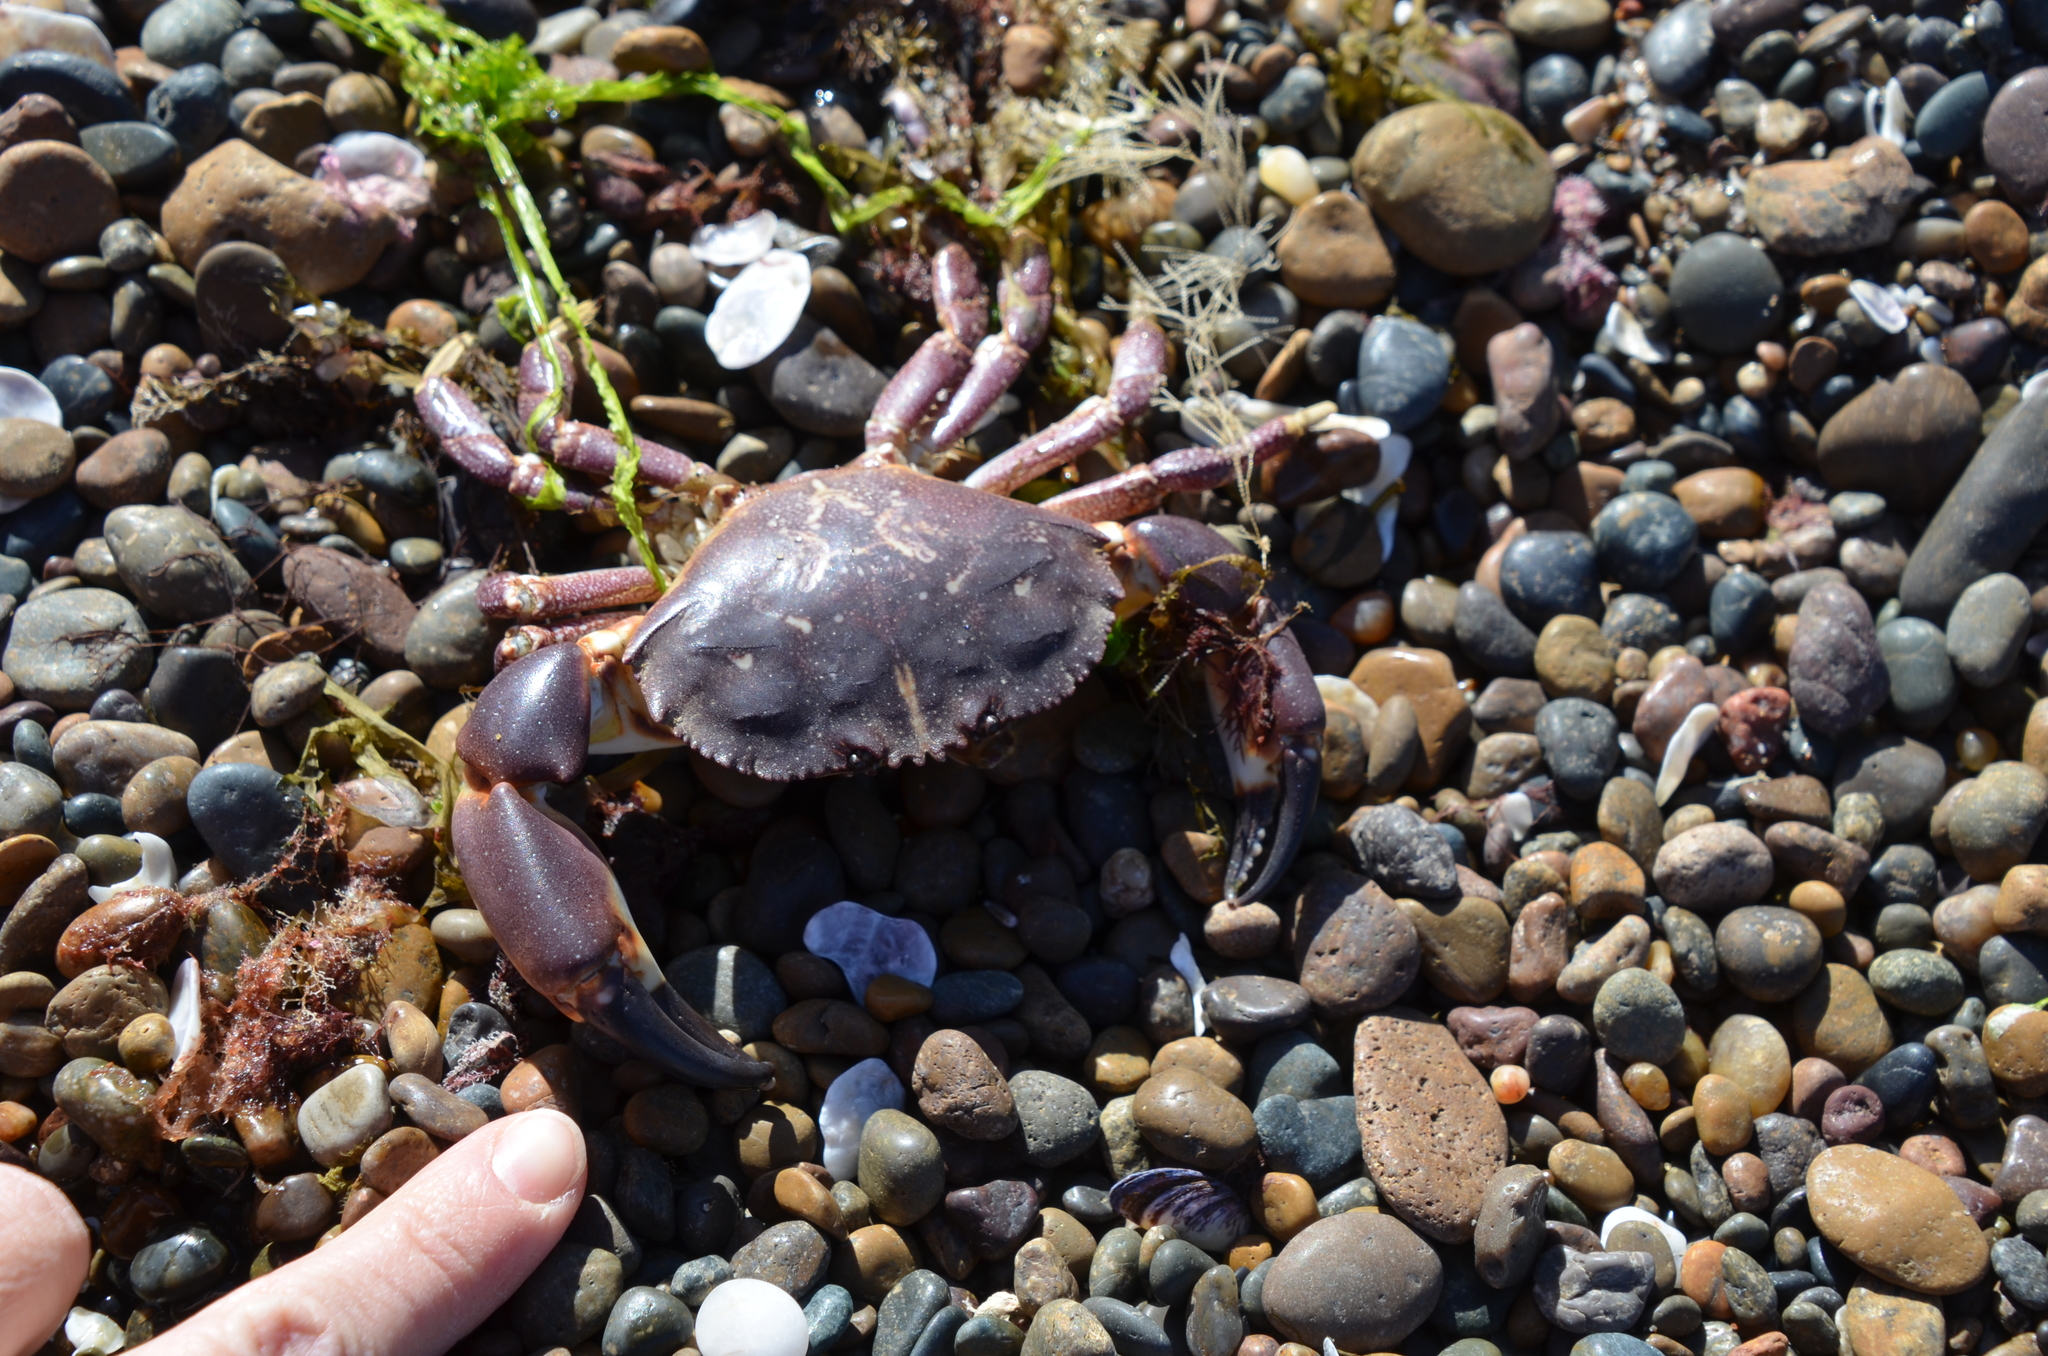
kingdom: Animalia
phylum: Arthropoda
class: Malacostraca
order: Decapoda
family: Platyxanthidae
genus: Danielethus
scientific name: Danielethus crenulatus
